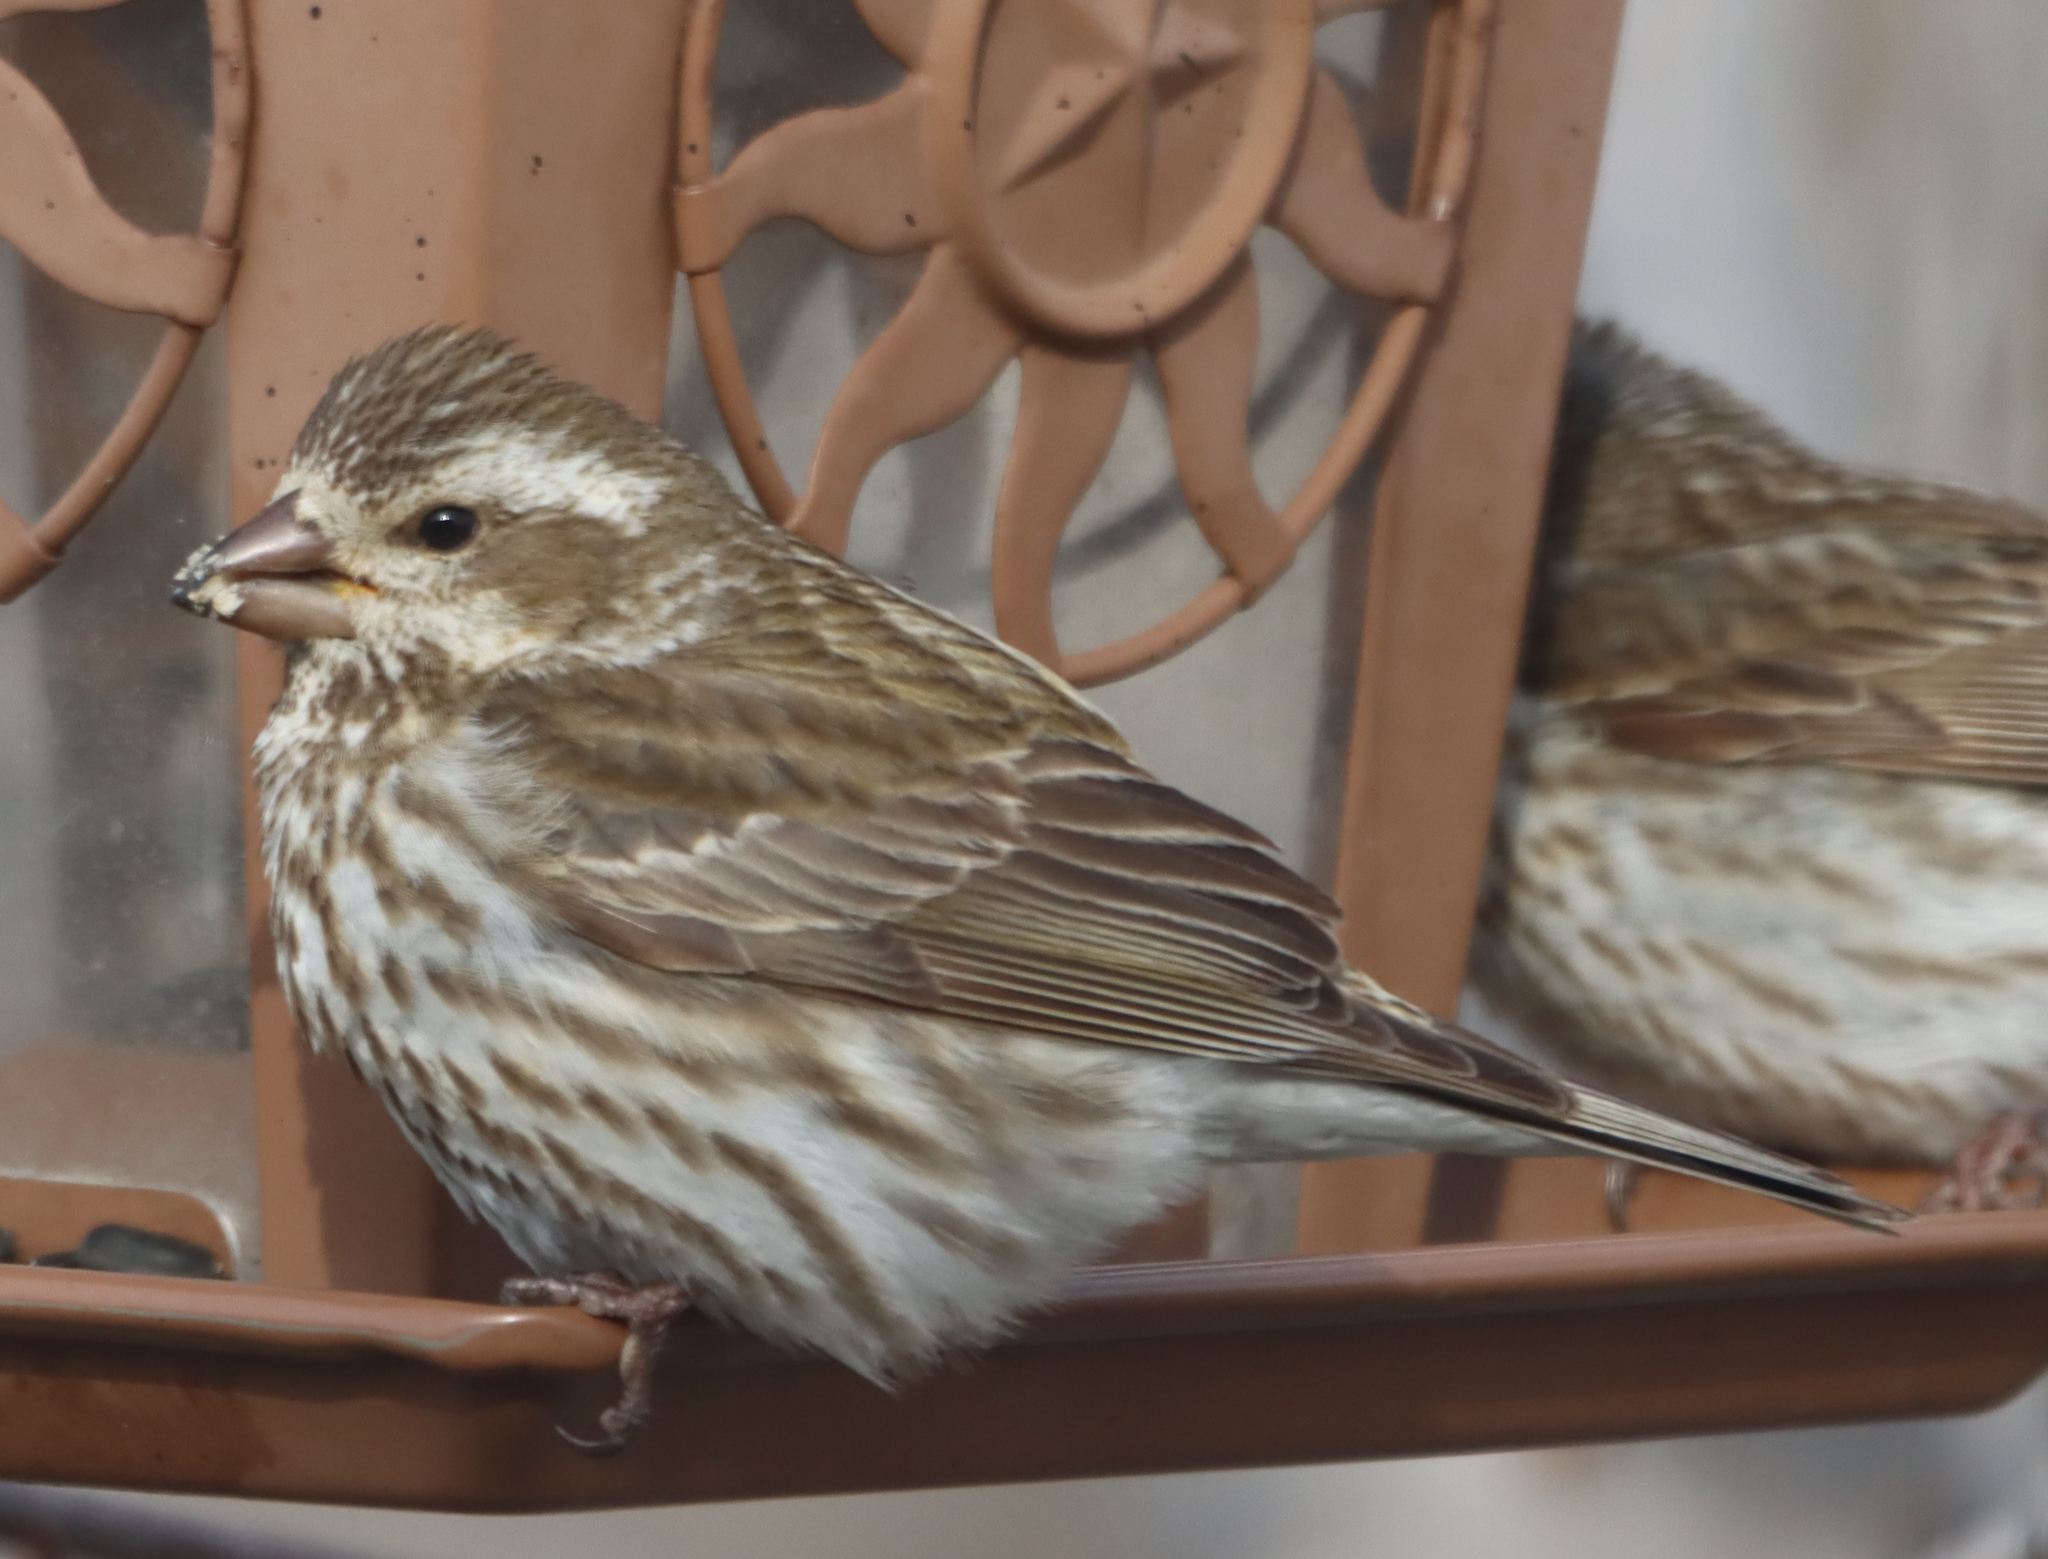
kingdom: Animalia
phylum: Chordata
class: Aves
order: Passeriformes
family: Fringillidae
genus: Haemorhous
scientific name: Haemorhous purpureus
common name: Purple finch
